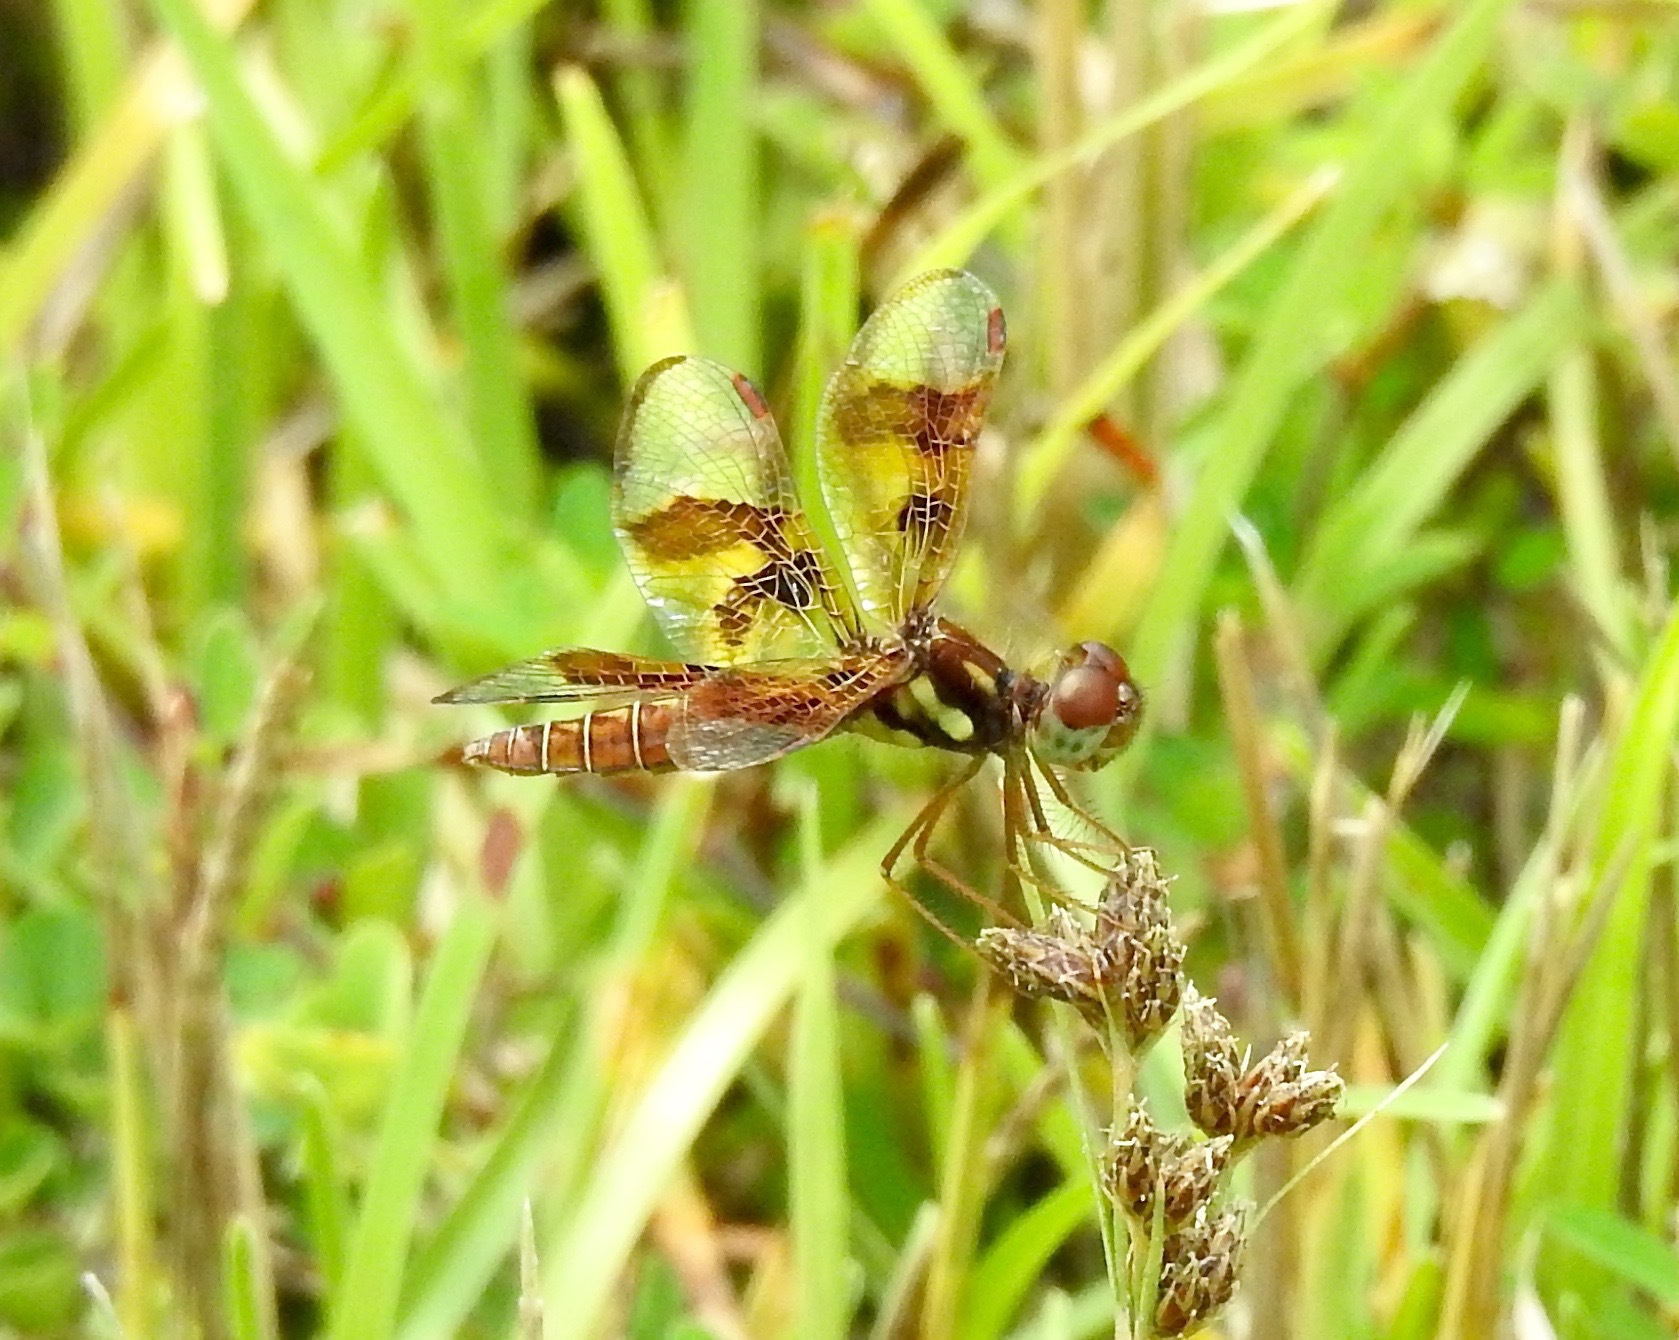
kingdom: Animalia
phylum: Arthropoda
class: Insecta
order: Odonata
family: Libellulidae
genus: Perithemis
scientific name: Perithemis tenera
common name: Eastern amberwing
